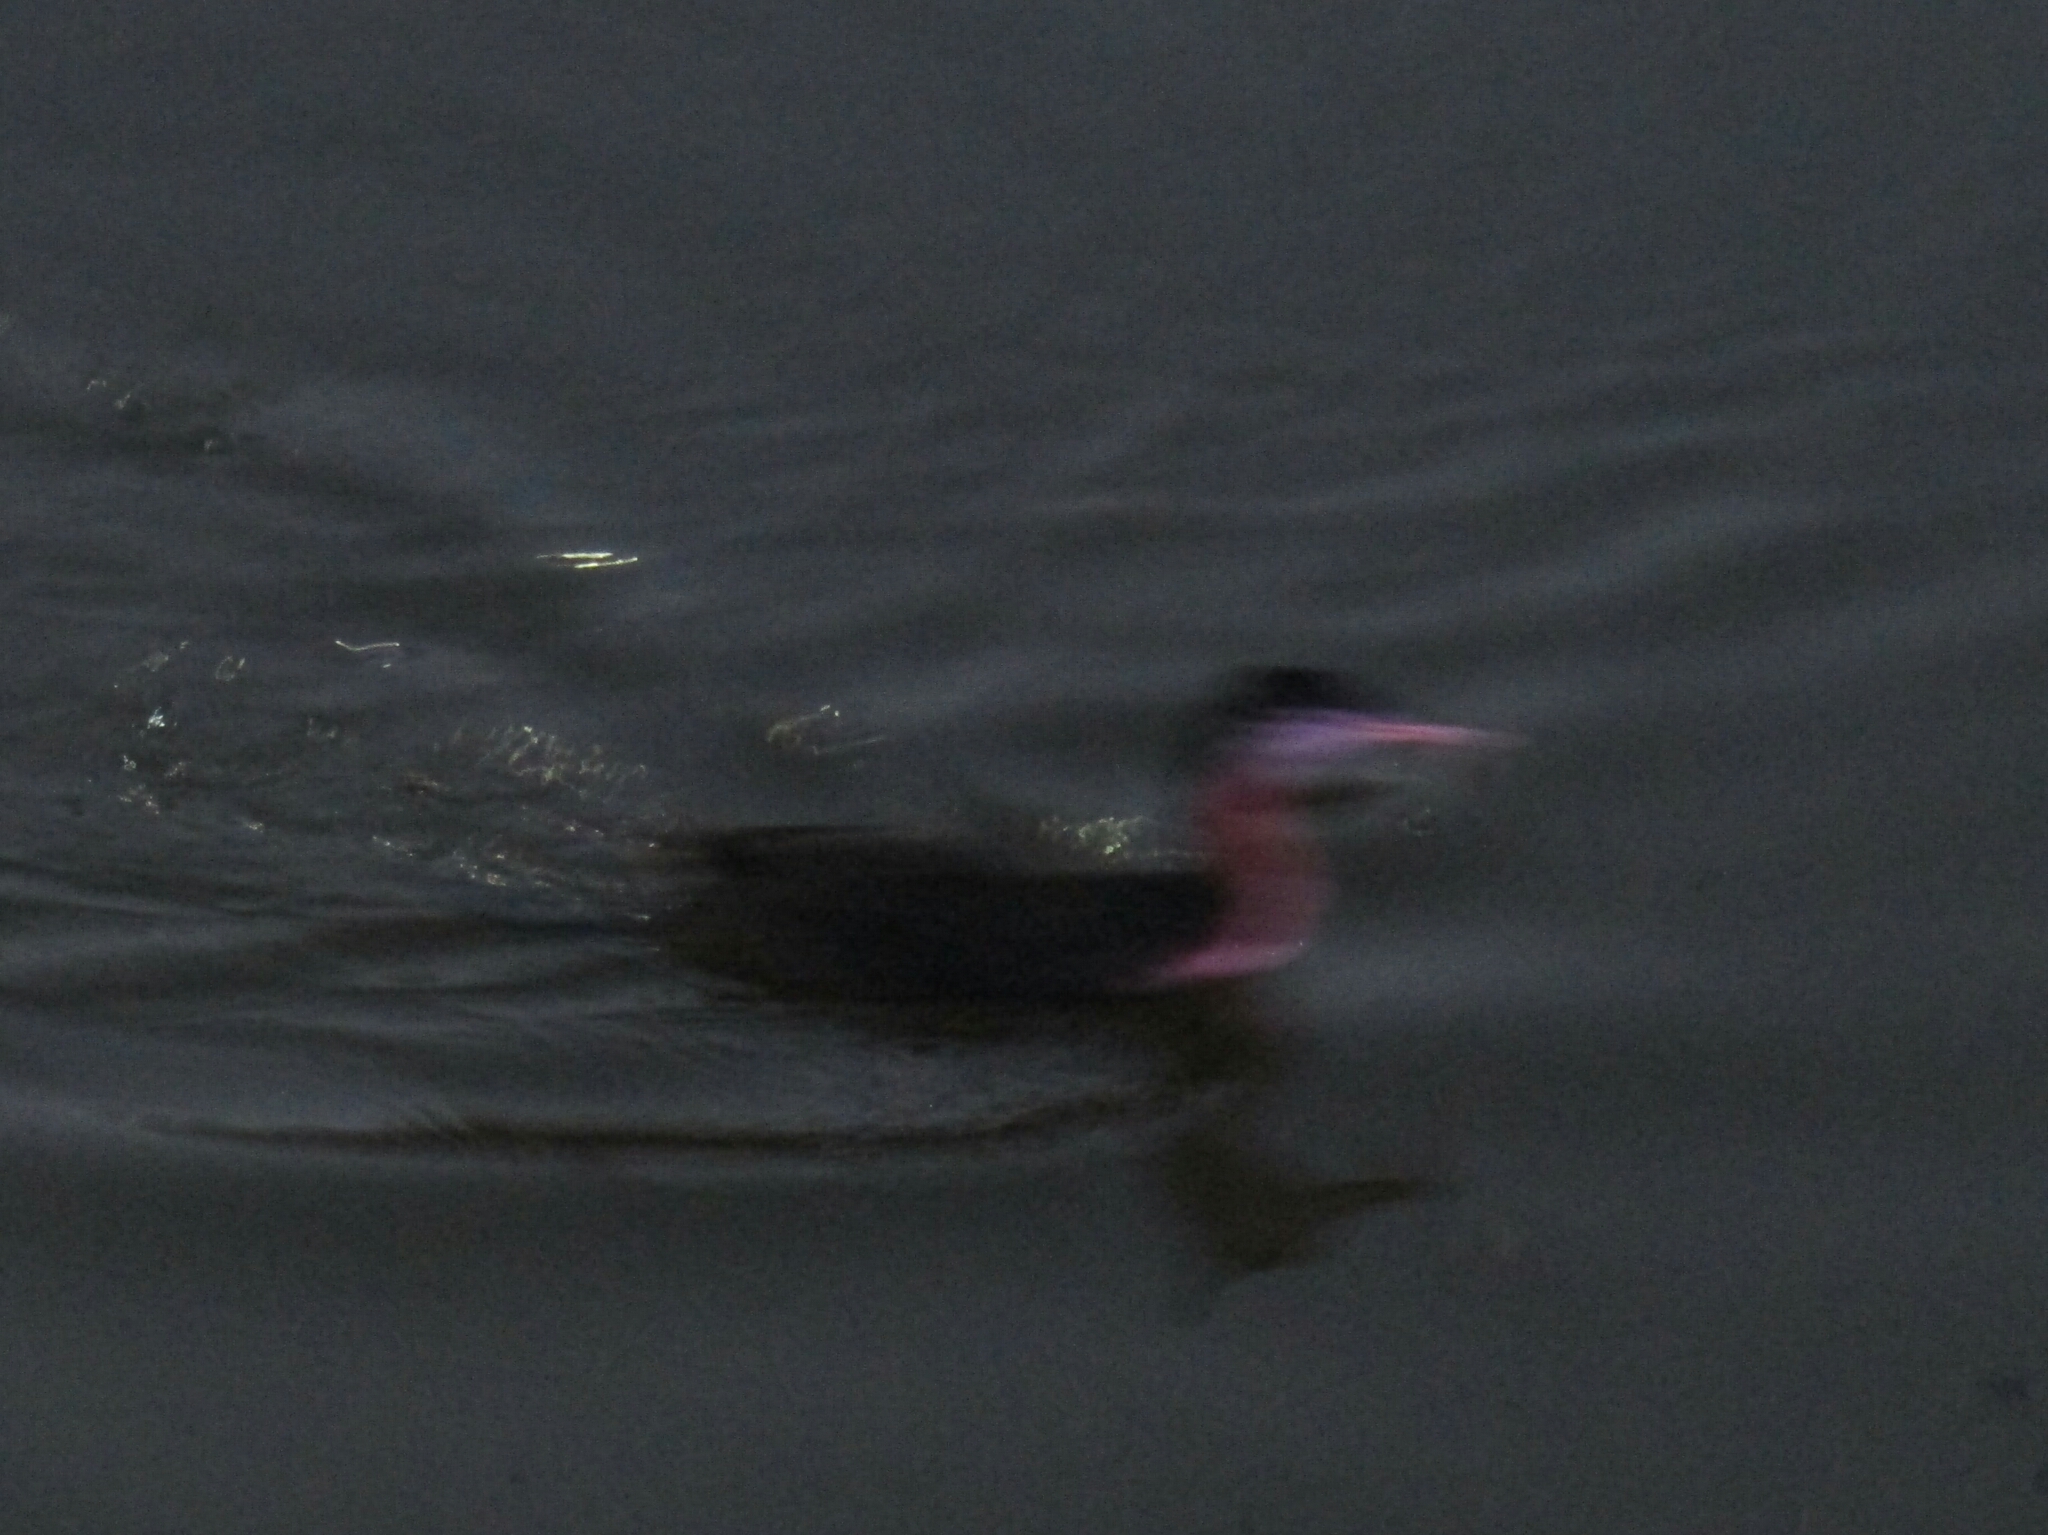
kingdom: Animalia
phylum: Chordata
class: Aves
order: Podicipediformes
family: Podicipedidae
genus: Podiceps
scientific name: Podiceps major
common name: Great grebe
